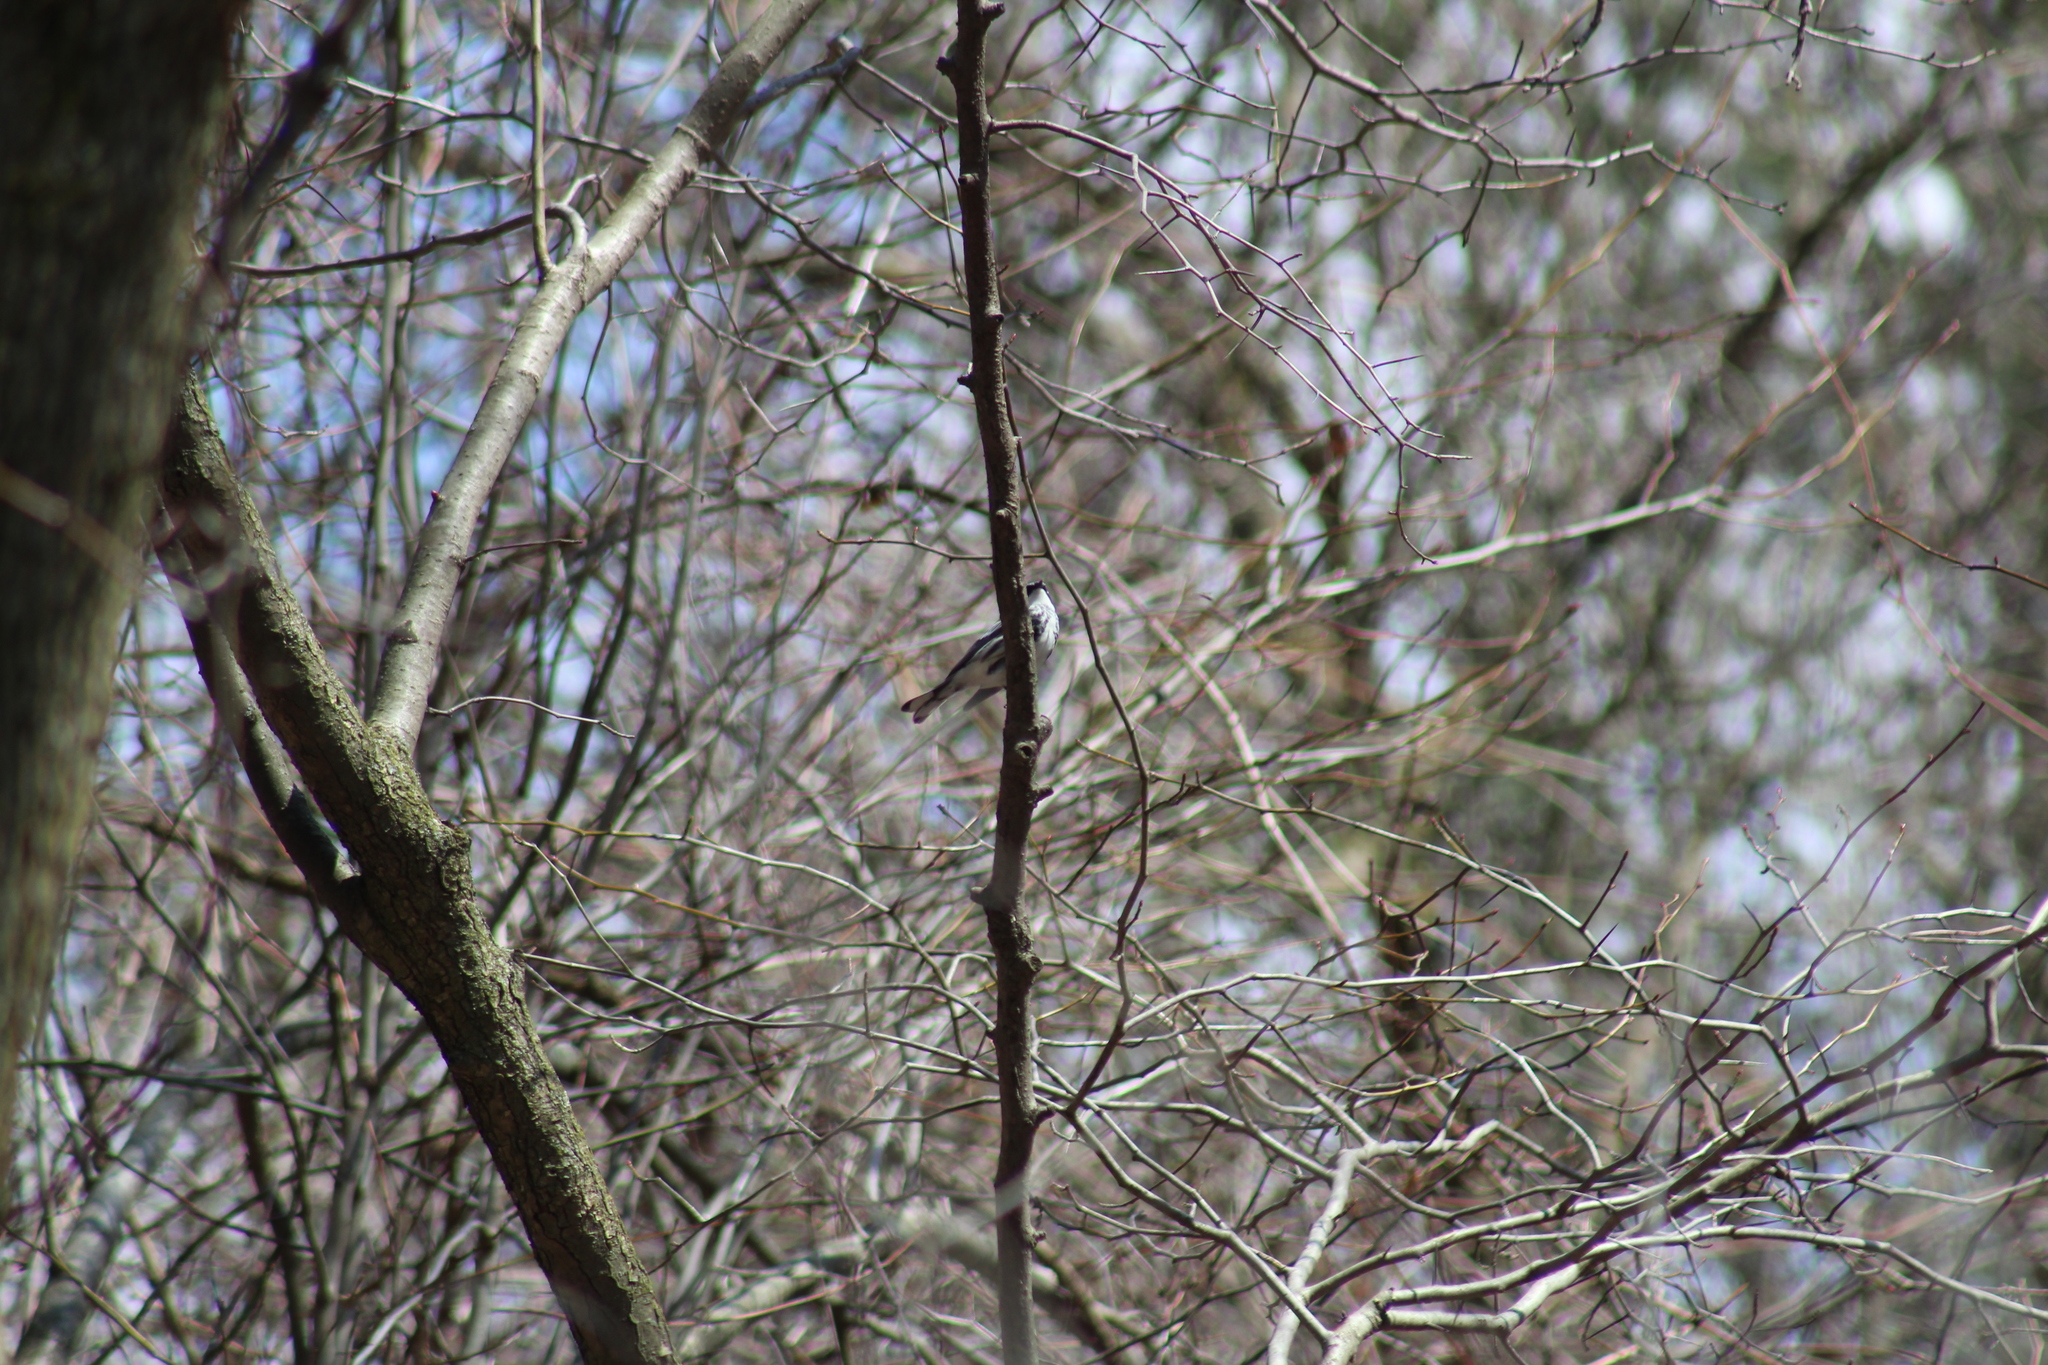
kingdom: Animalia
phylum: Chordata
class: Aves
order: Passeriformes
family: Parulidae
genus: Setophaga
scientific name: Setophaga coronata
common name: Myrtle warbler
